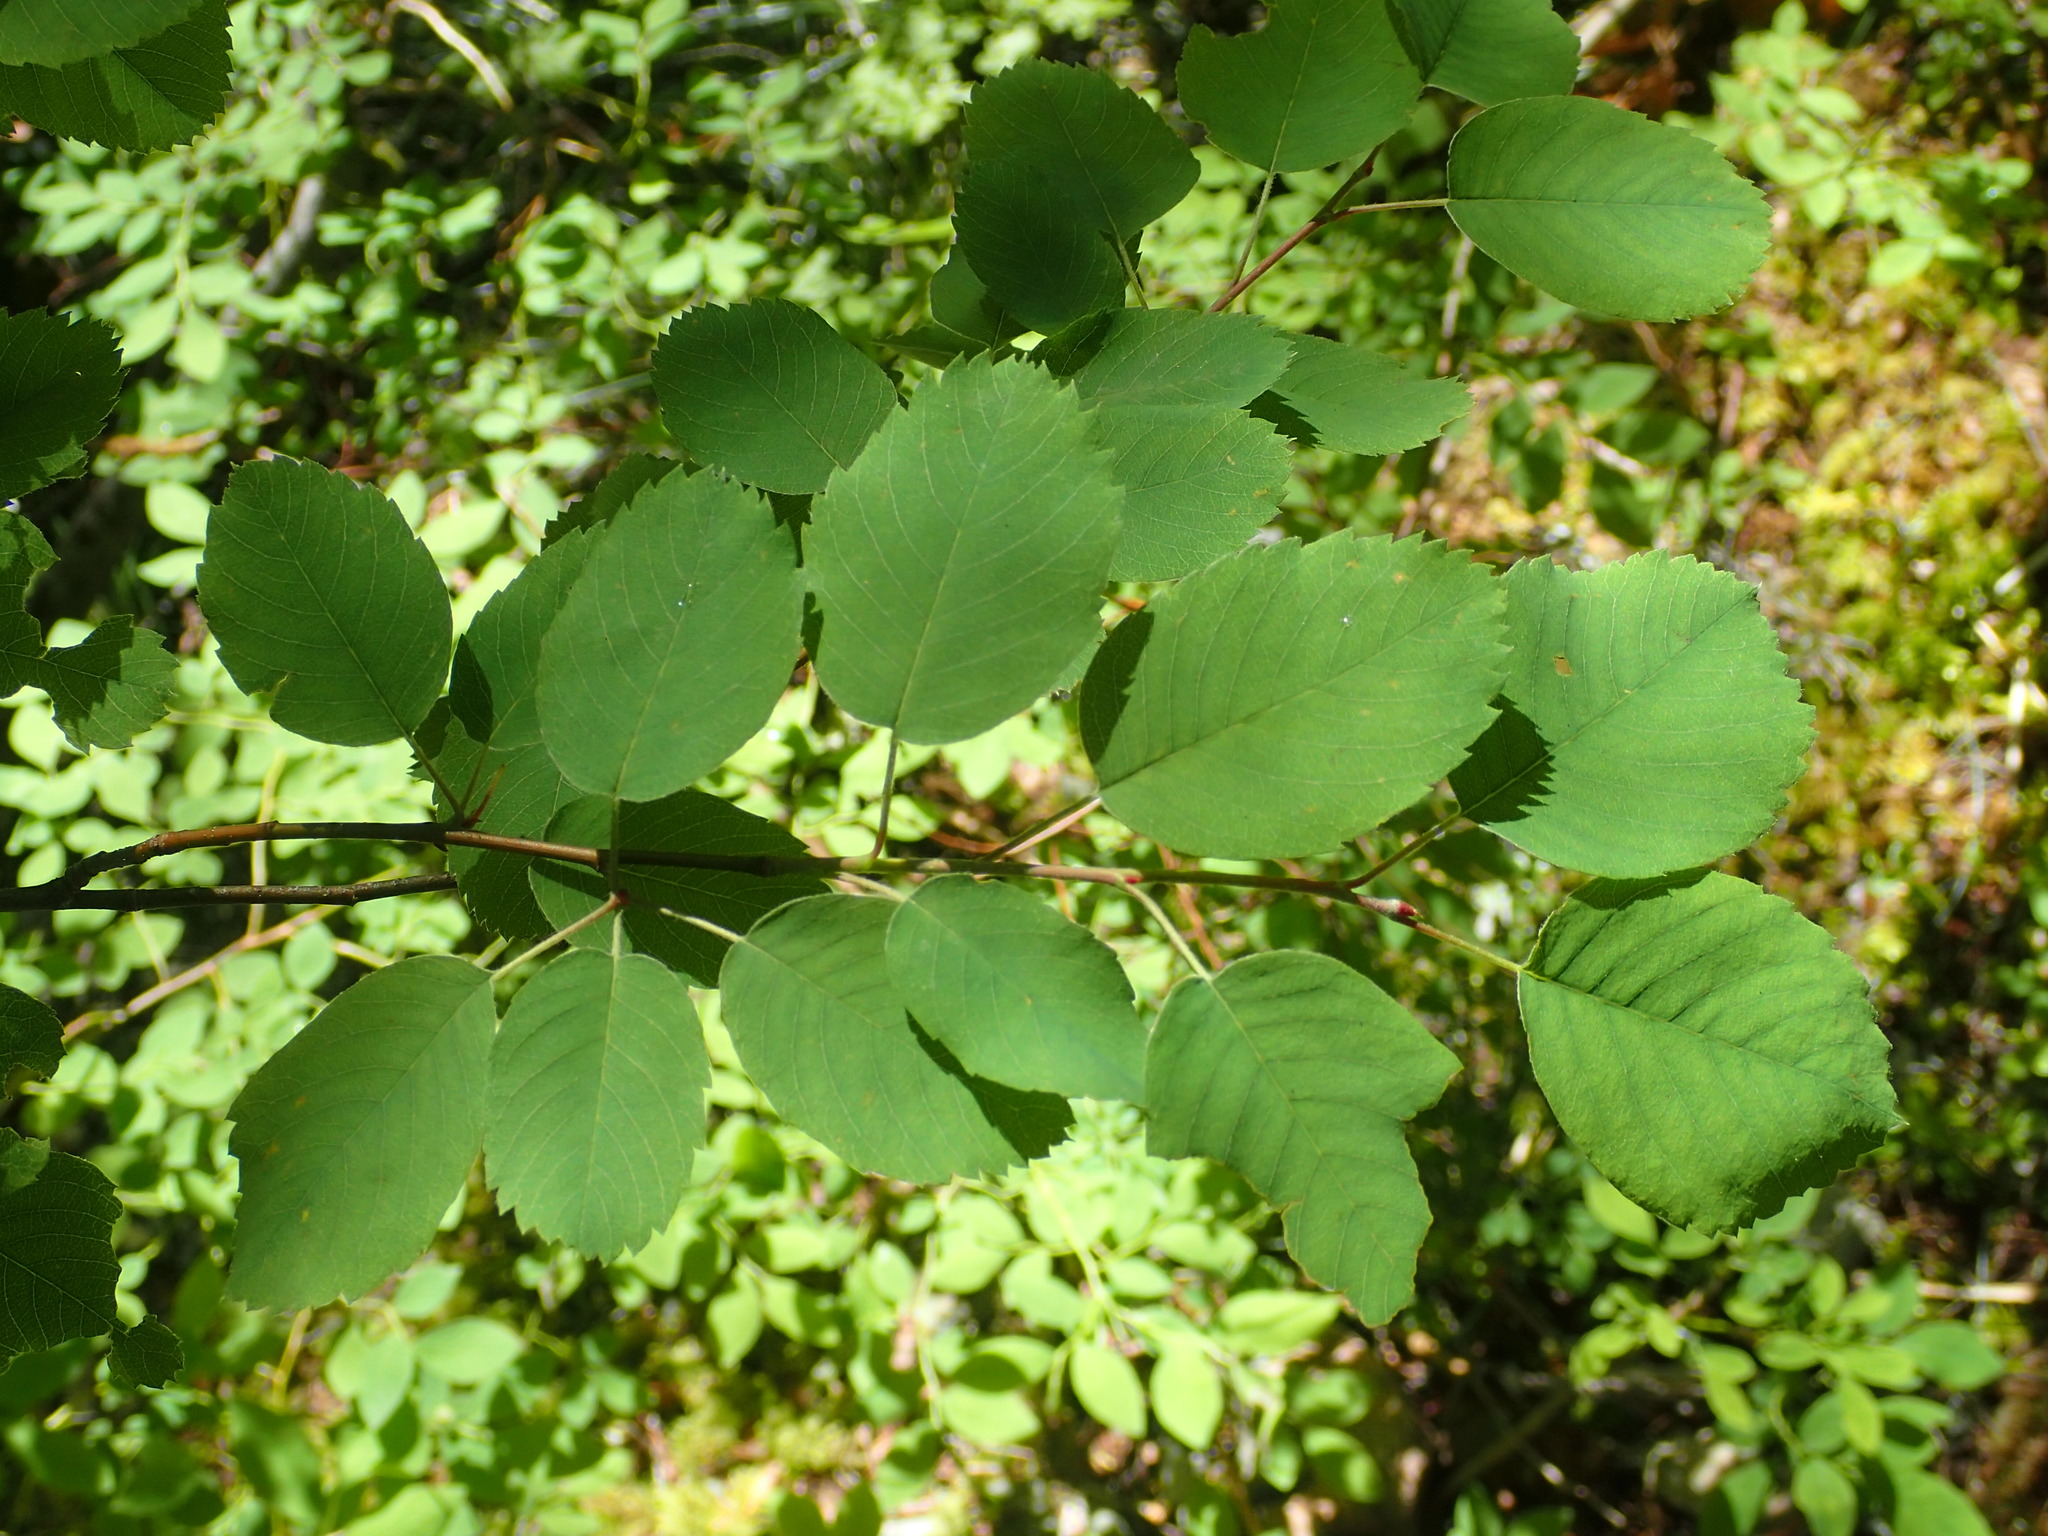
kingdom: Plantae
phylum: Tracheophyta
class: Magnoliopsida
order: Rosales
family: Rosaceae
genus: Amelanchier
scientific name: Amelanchier alnifolia
